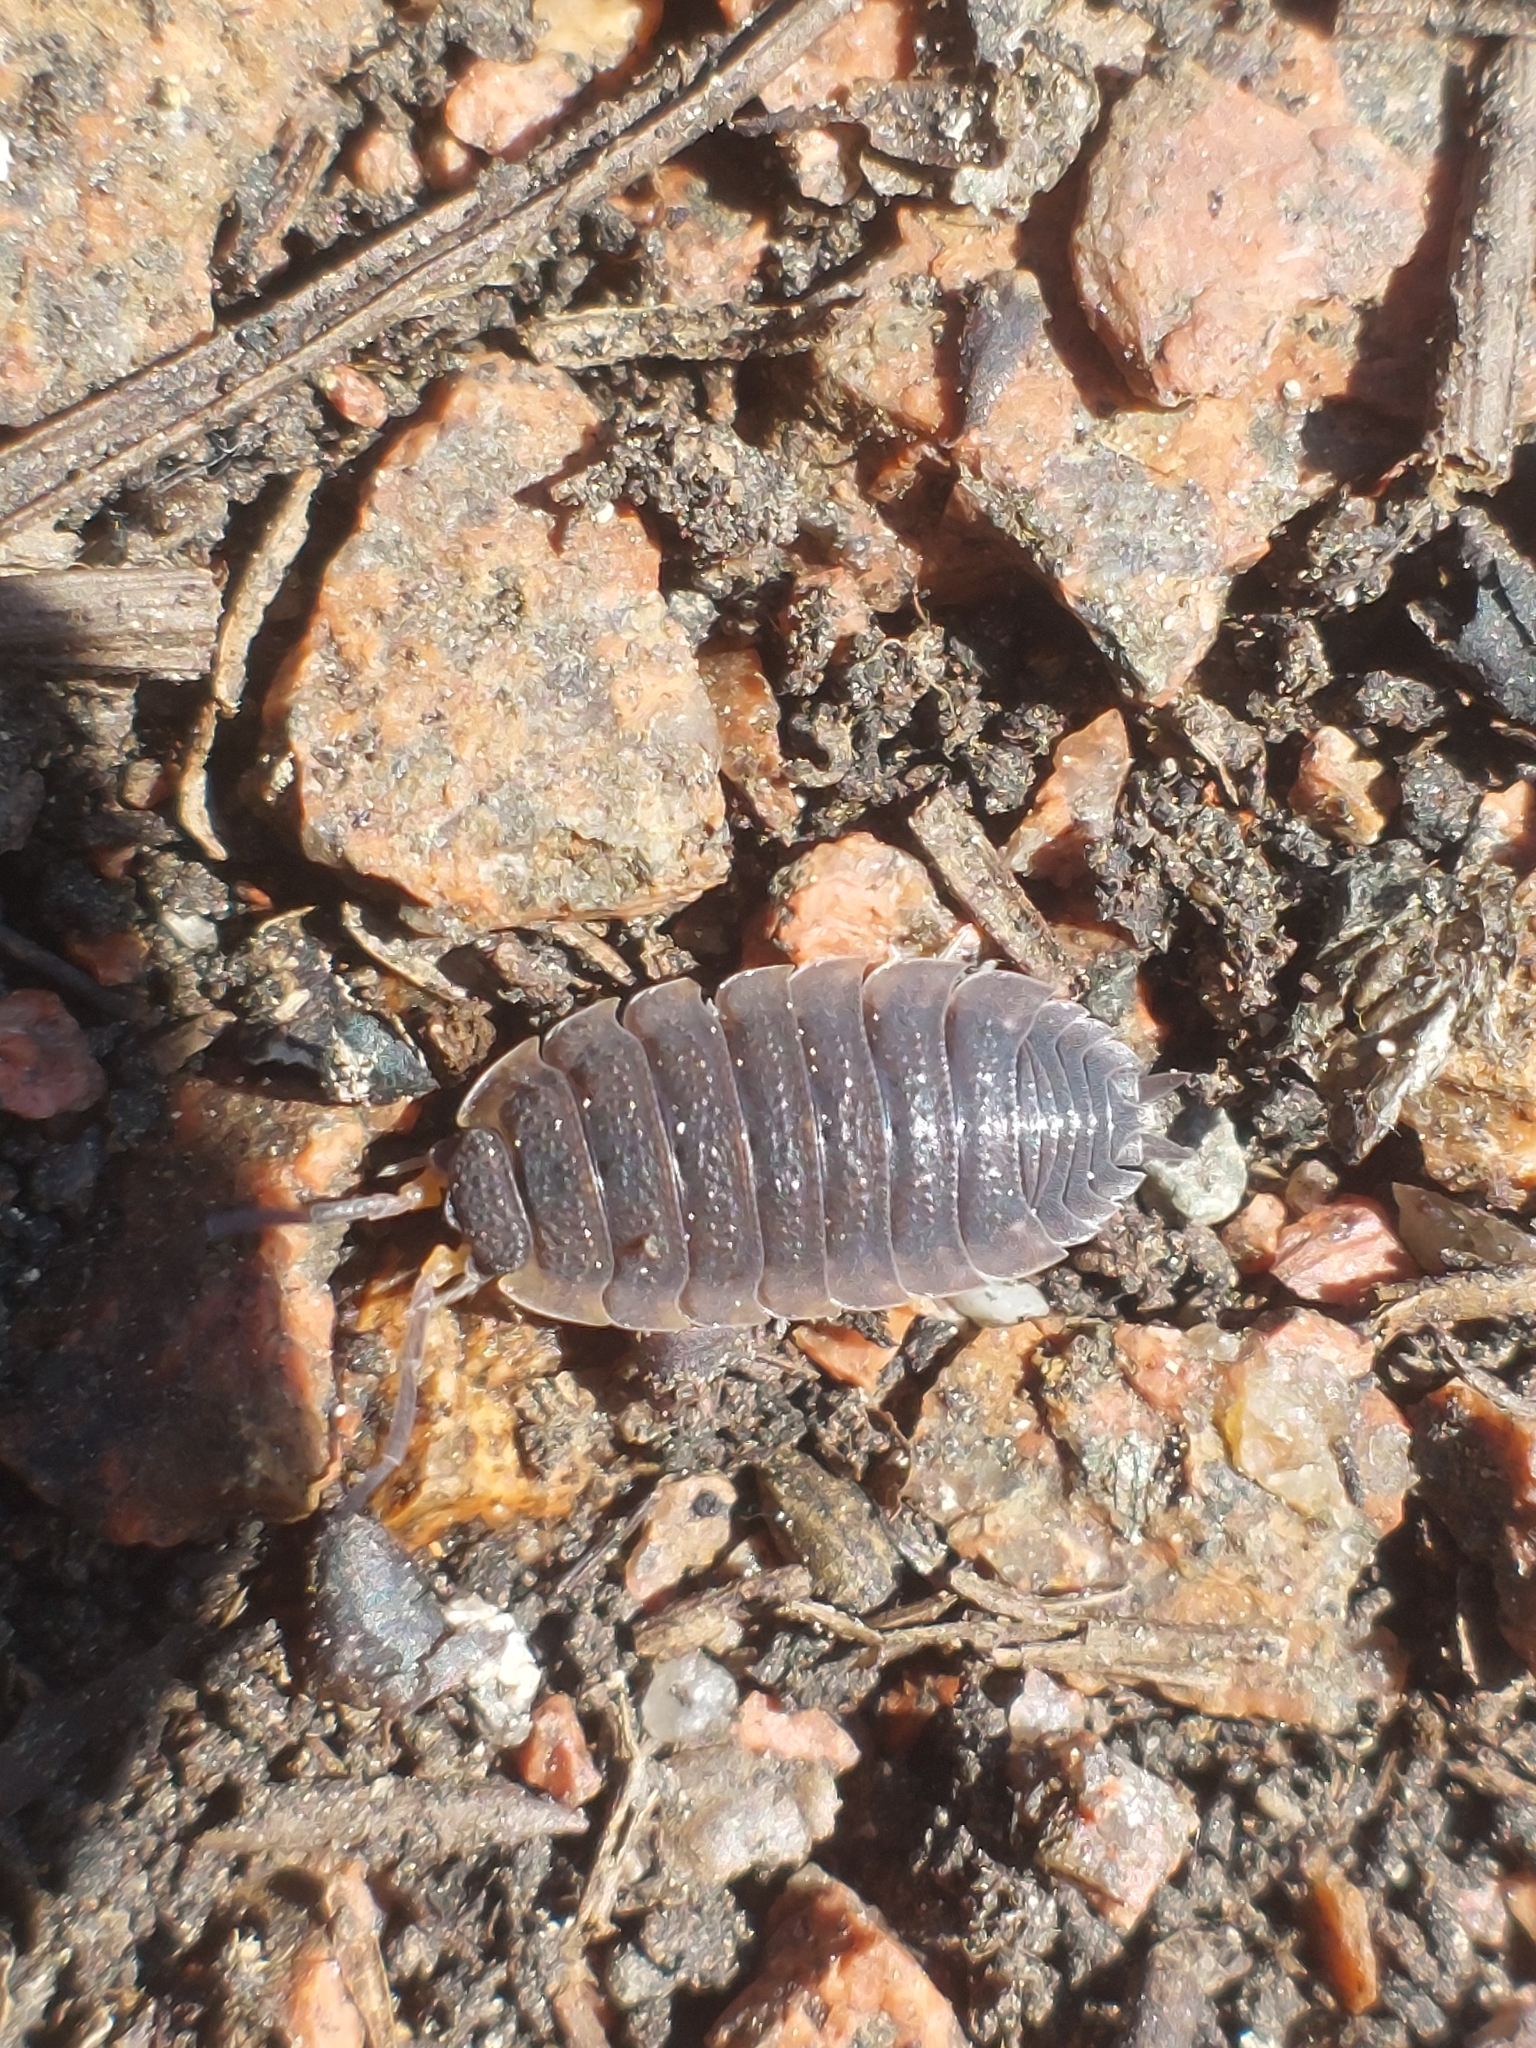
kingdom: Animalia
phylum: Arthropoda
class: Malacostraca
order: Isopoda
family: Porcellionidae
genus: Porcellio
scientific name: Porcellio scaber
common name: Common rough woodlouse
